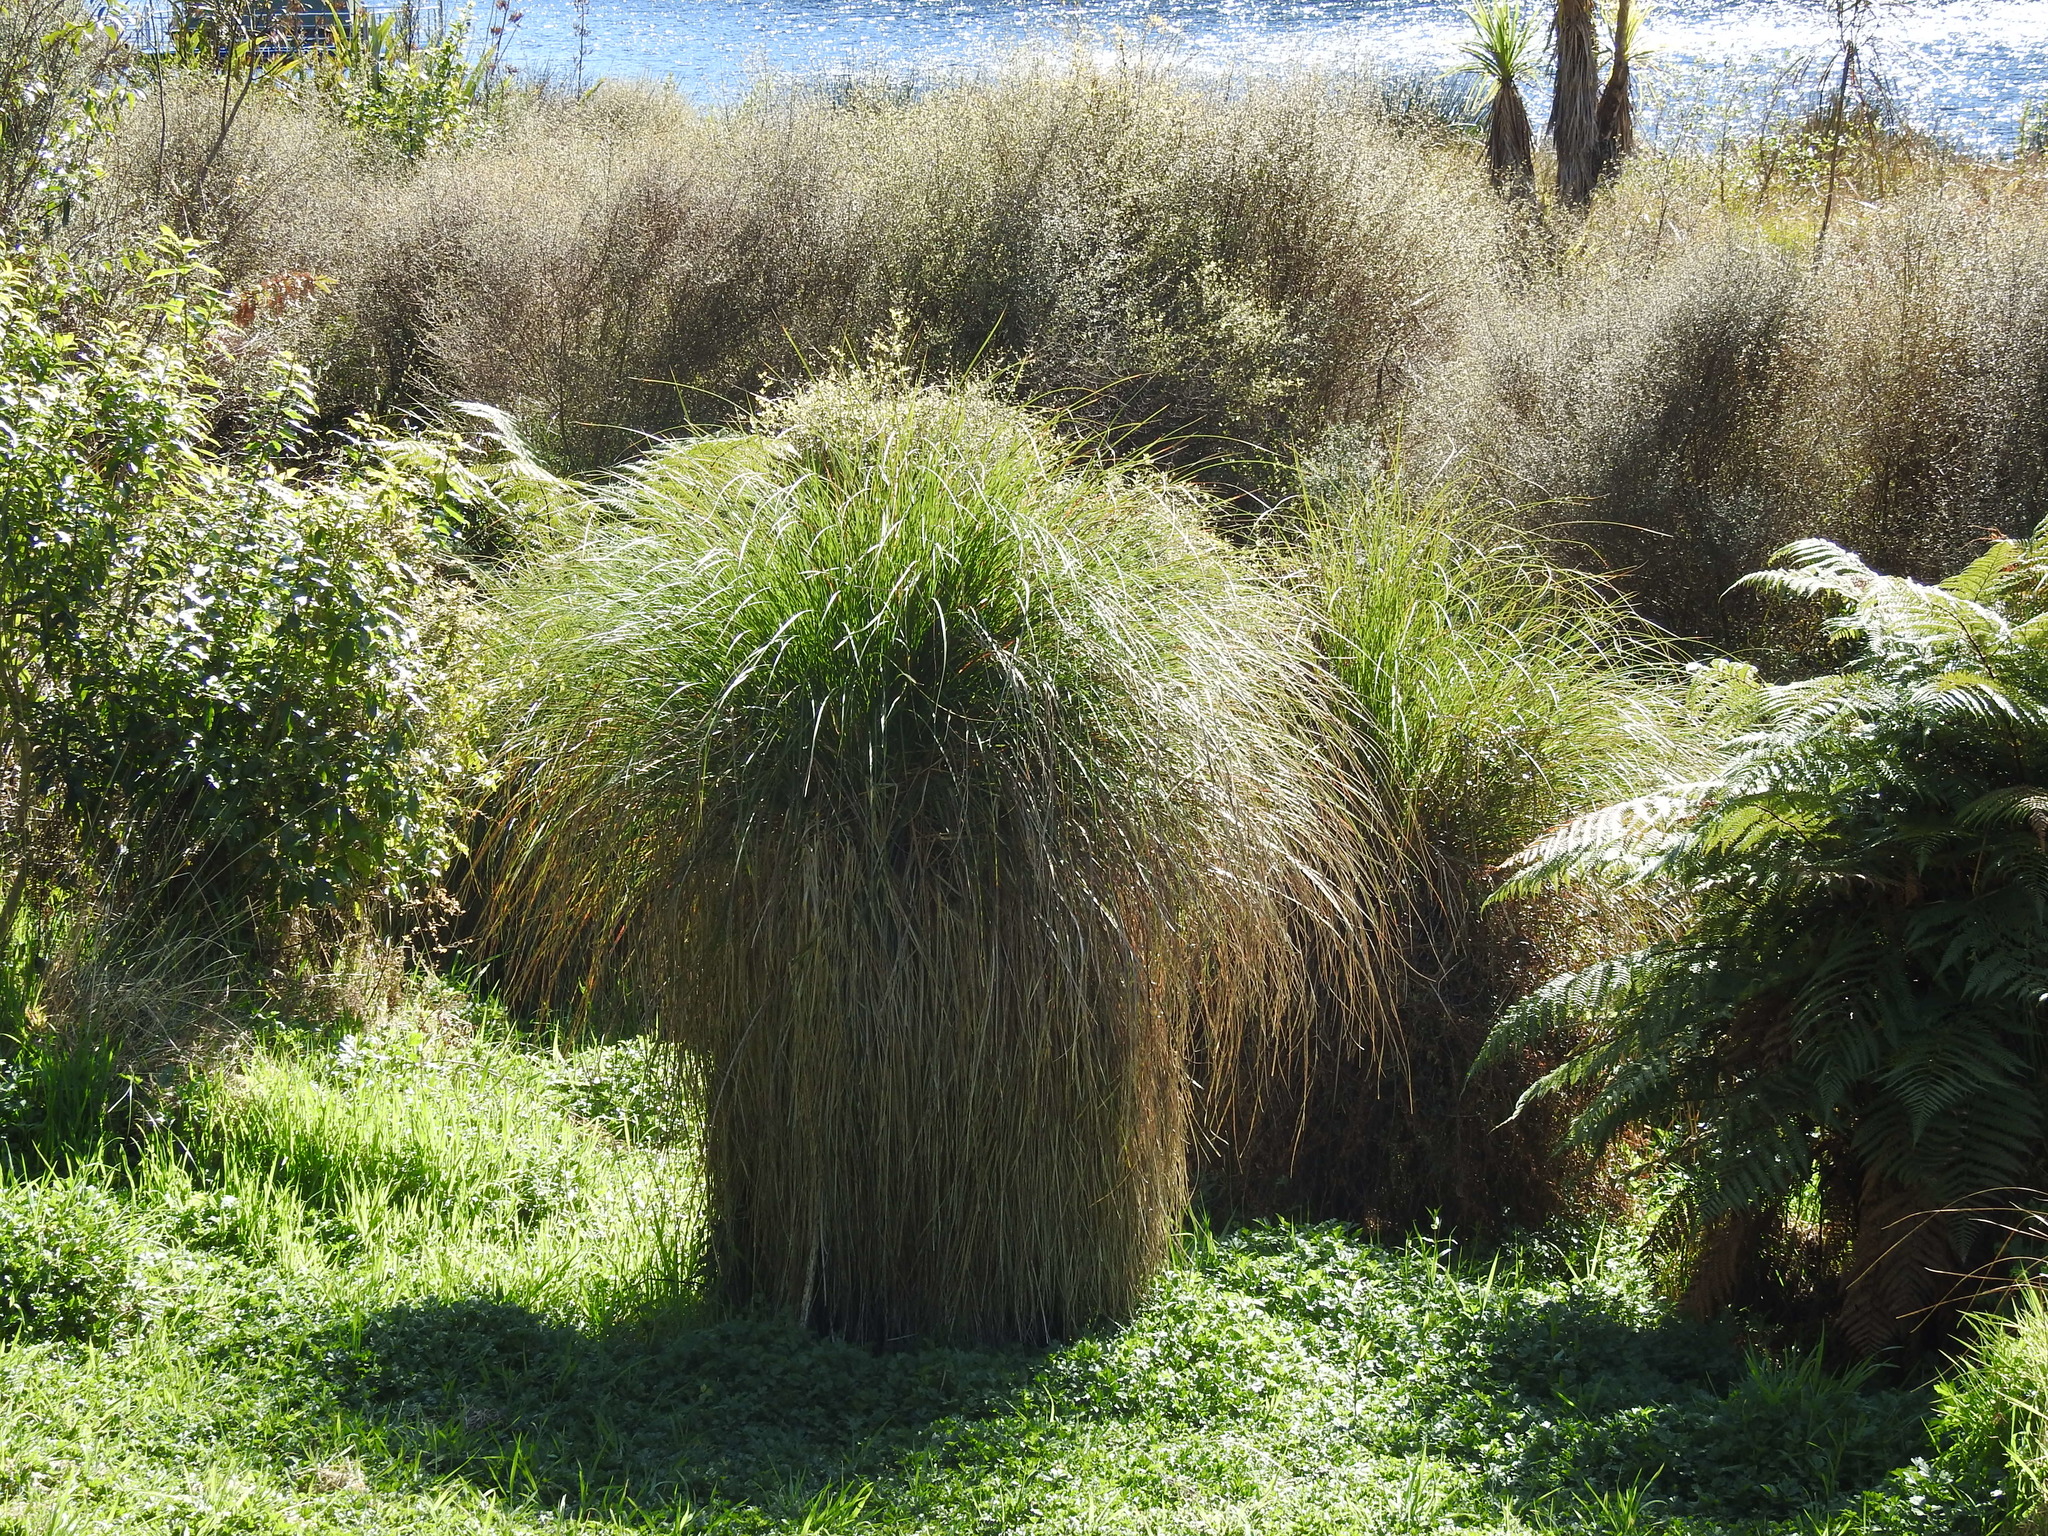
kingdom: Plantae
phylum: Tracheophyta
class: Liliopsida
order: Poales
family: Cyperaceae
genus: Carex
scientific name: Carex secta
